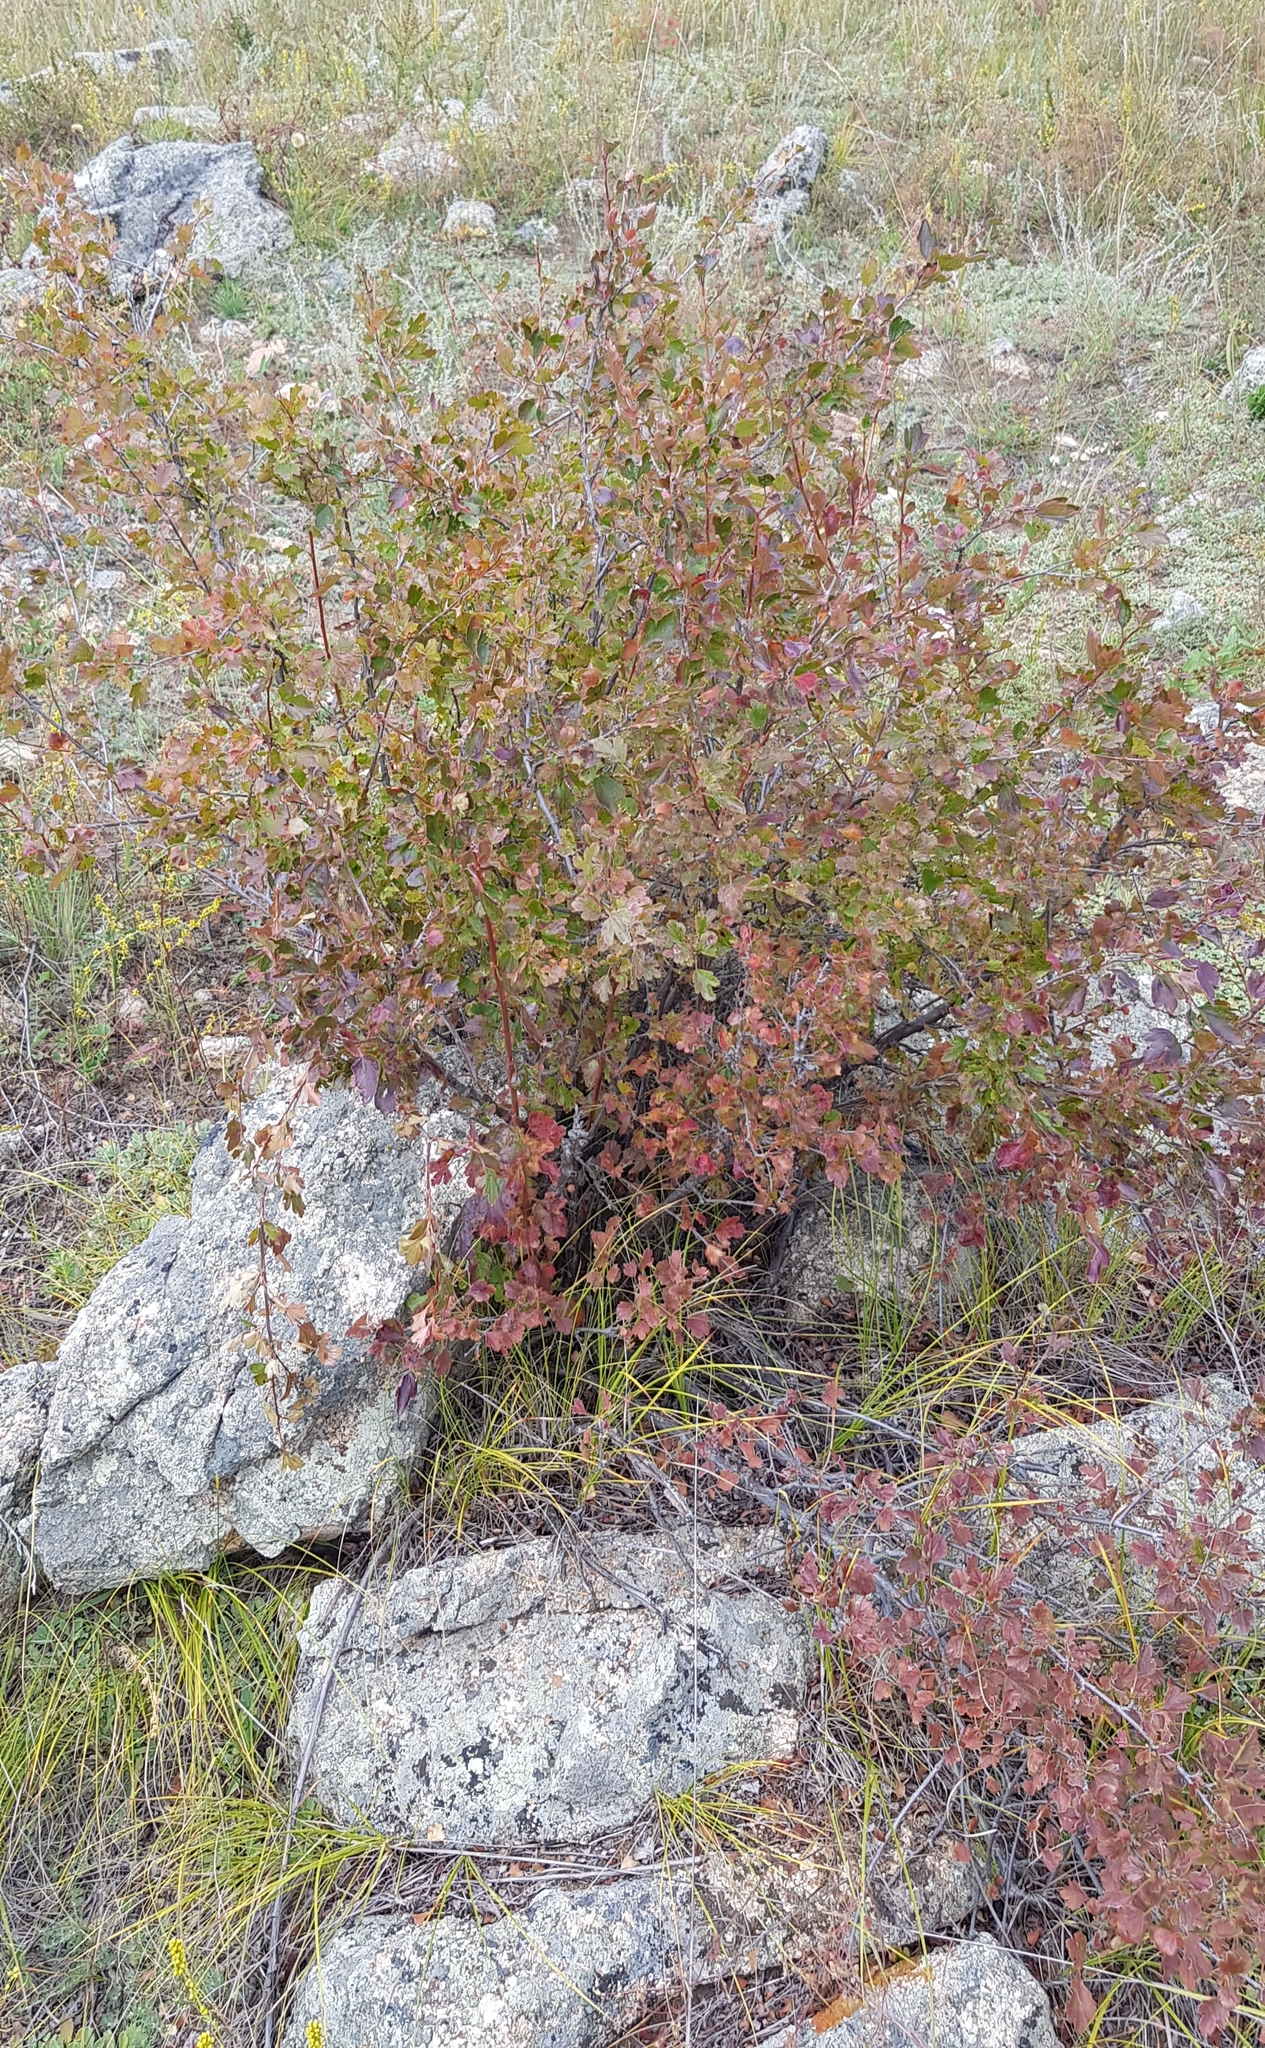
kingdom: Plantae
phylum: Tracheophyta
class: Magnoliopsida
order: Saxifragales
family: Grossulariaceae
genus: Ribes
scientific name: Ribes rubrum
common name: Red currant
